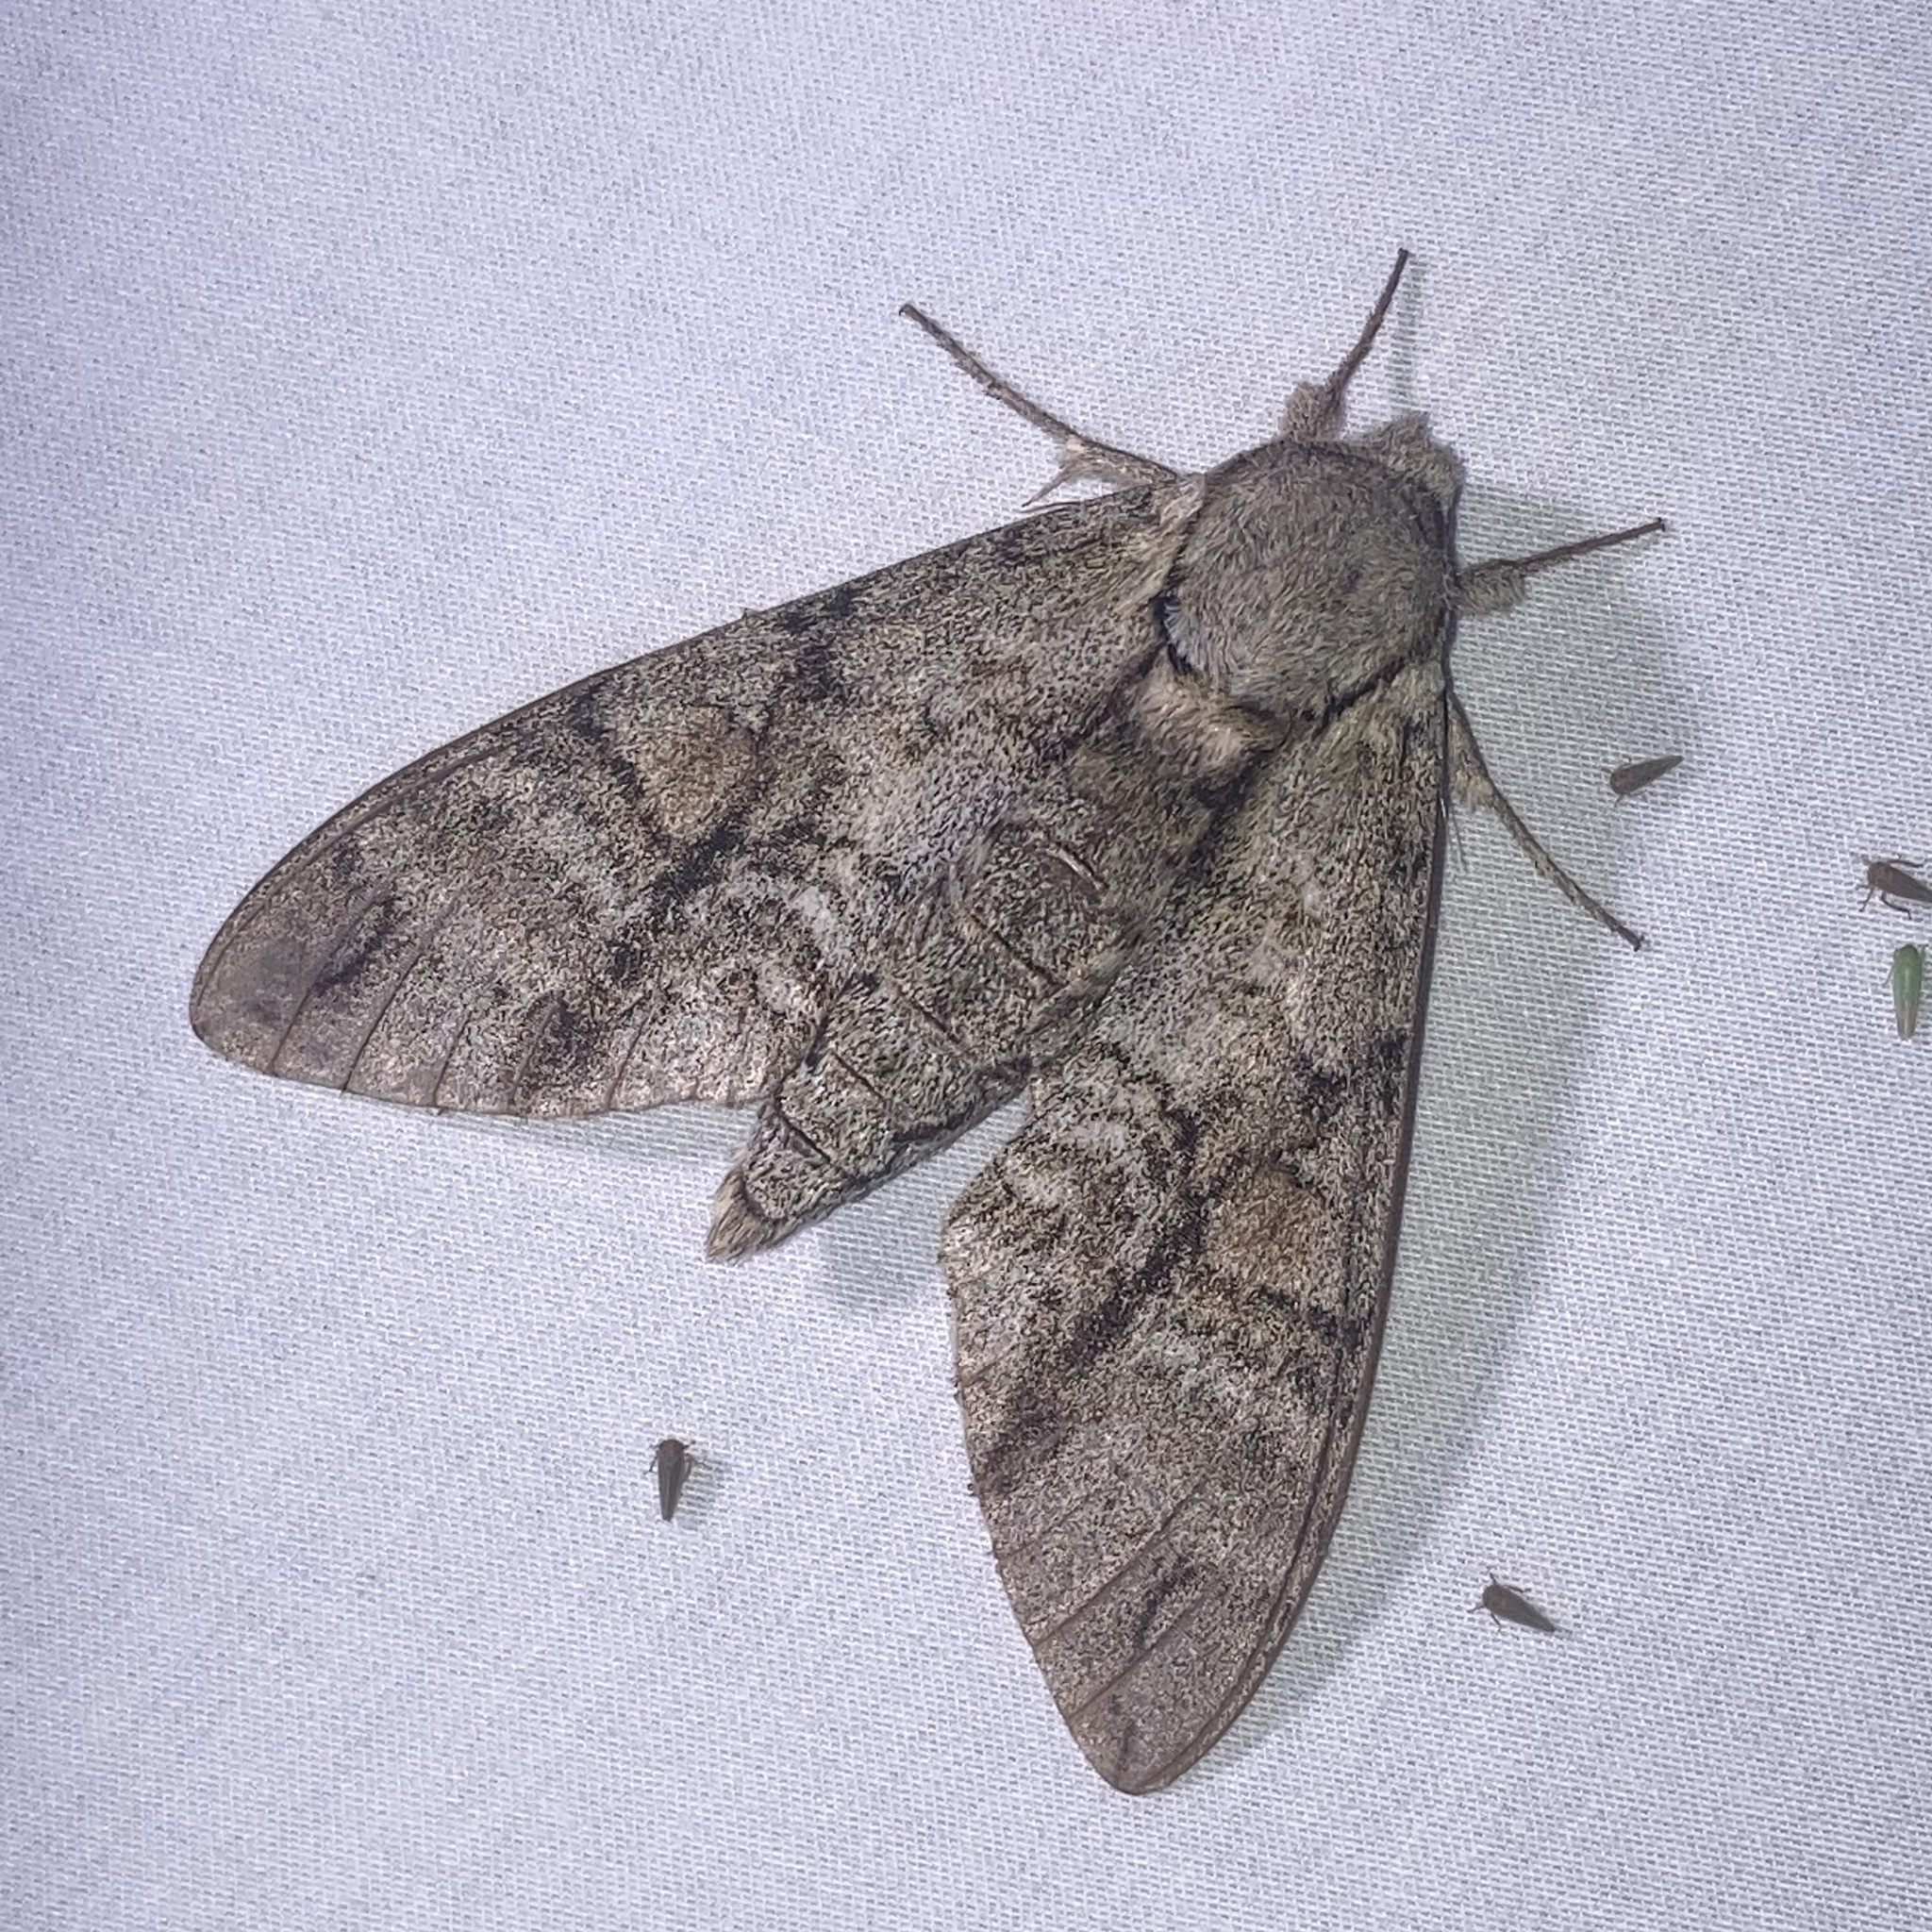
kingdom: Animalia
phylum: Arthropoda
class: Insecta
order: Lepidoptera
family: Sphingidae
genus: Manduca
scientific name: Manduca jasminearum
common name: Ash sphinx
